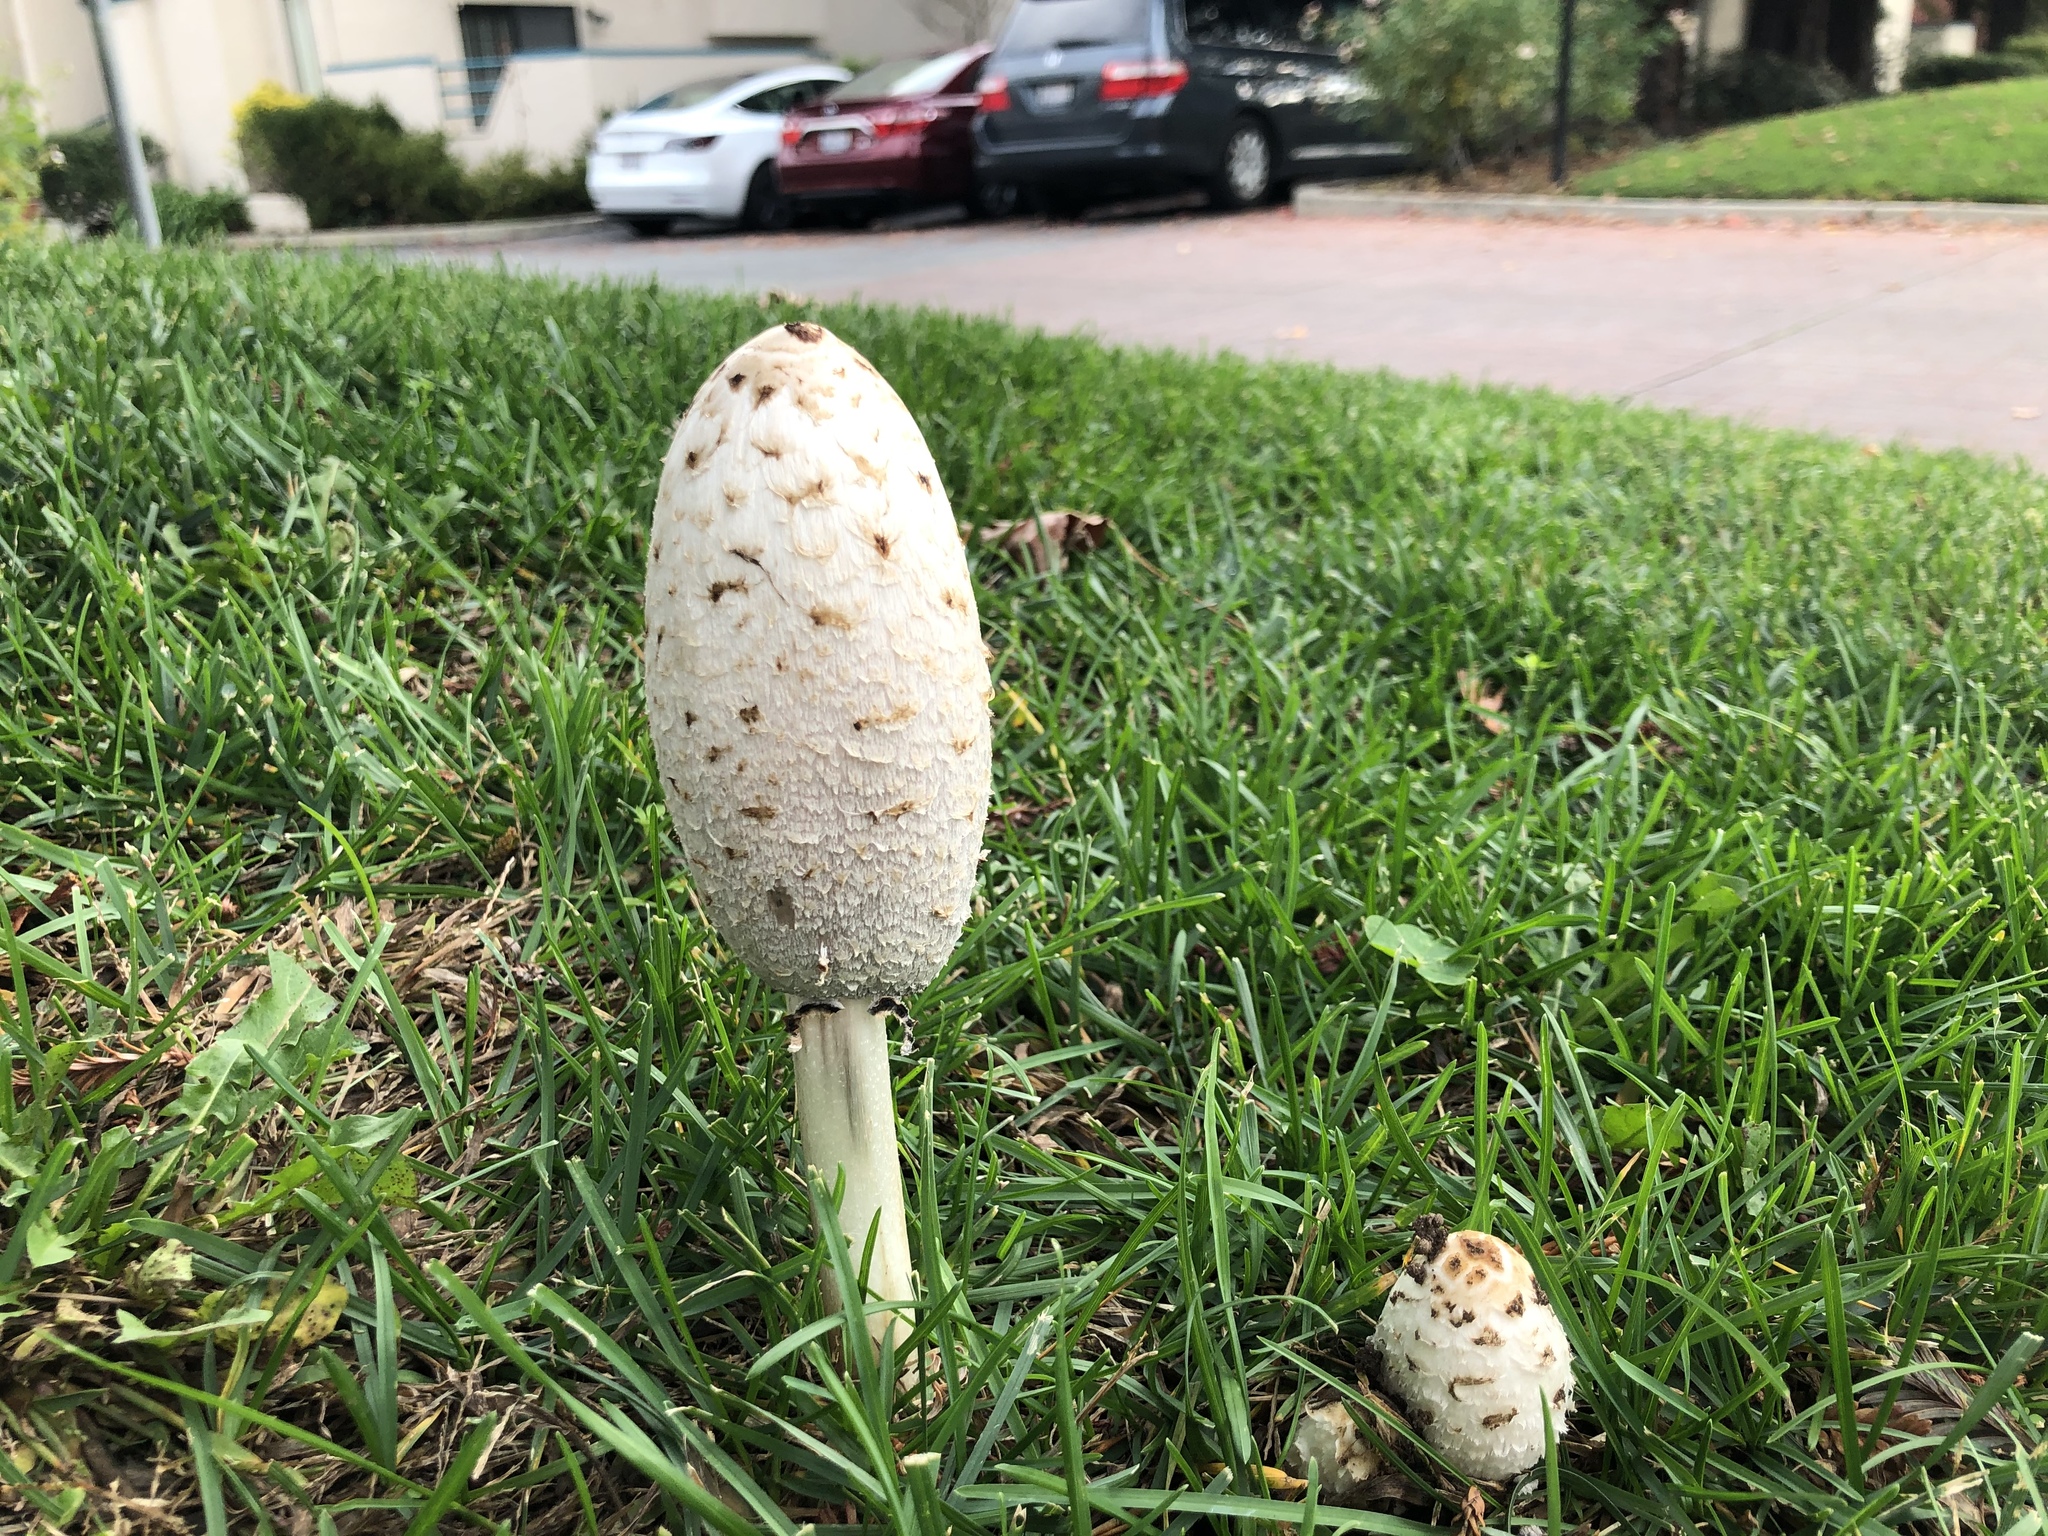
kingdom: Fungi
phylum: Basidiomycota
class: Agaricomycetes
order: Agaricales
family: Agaricaceae
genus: Coprinus
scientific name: Coprinus comatus
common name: Lawyer's wig
